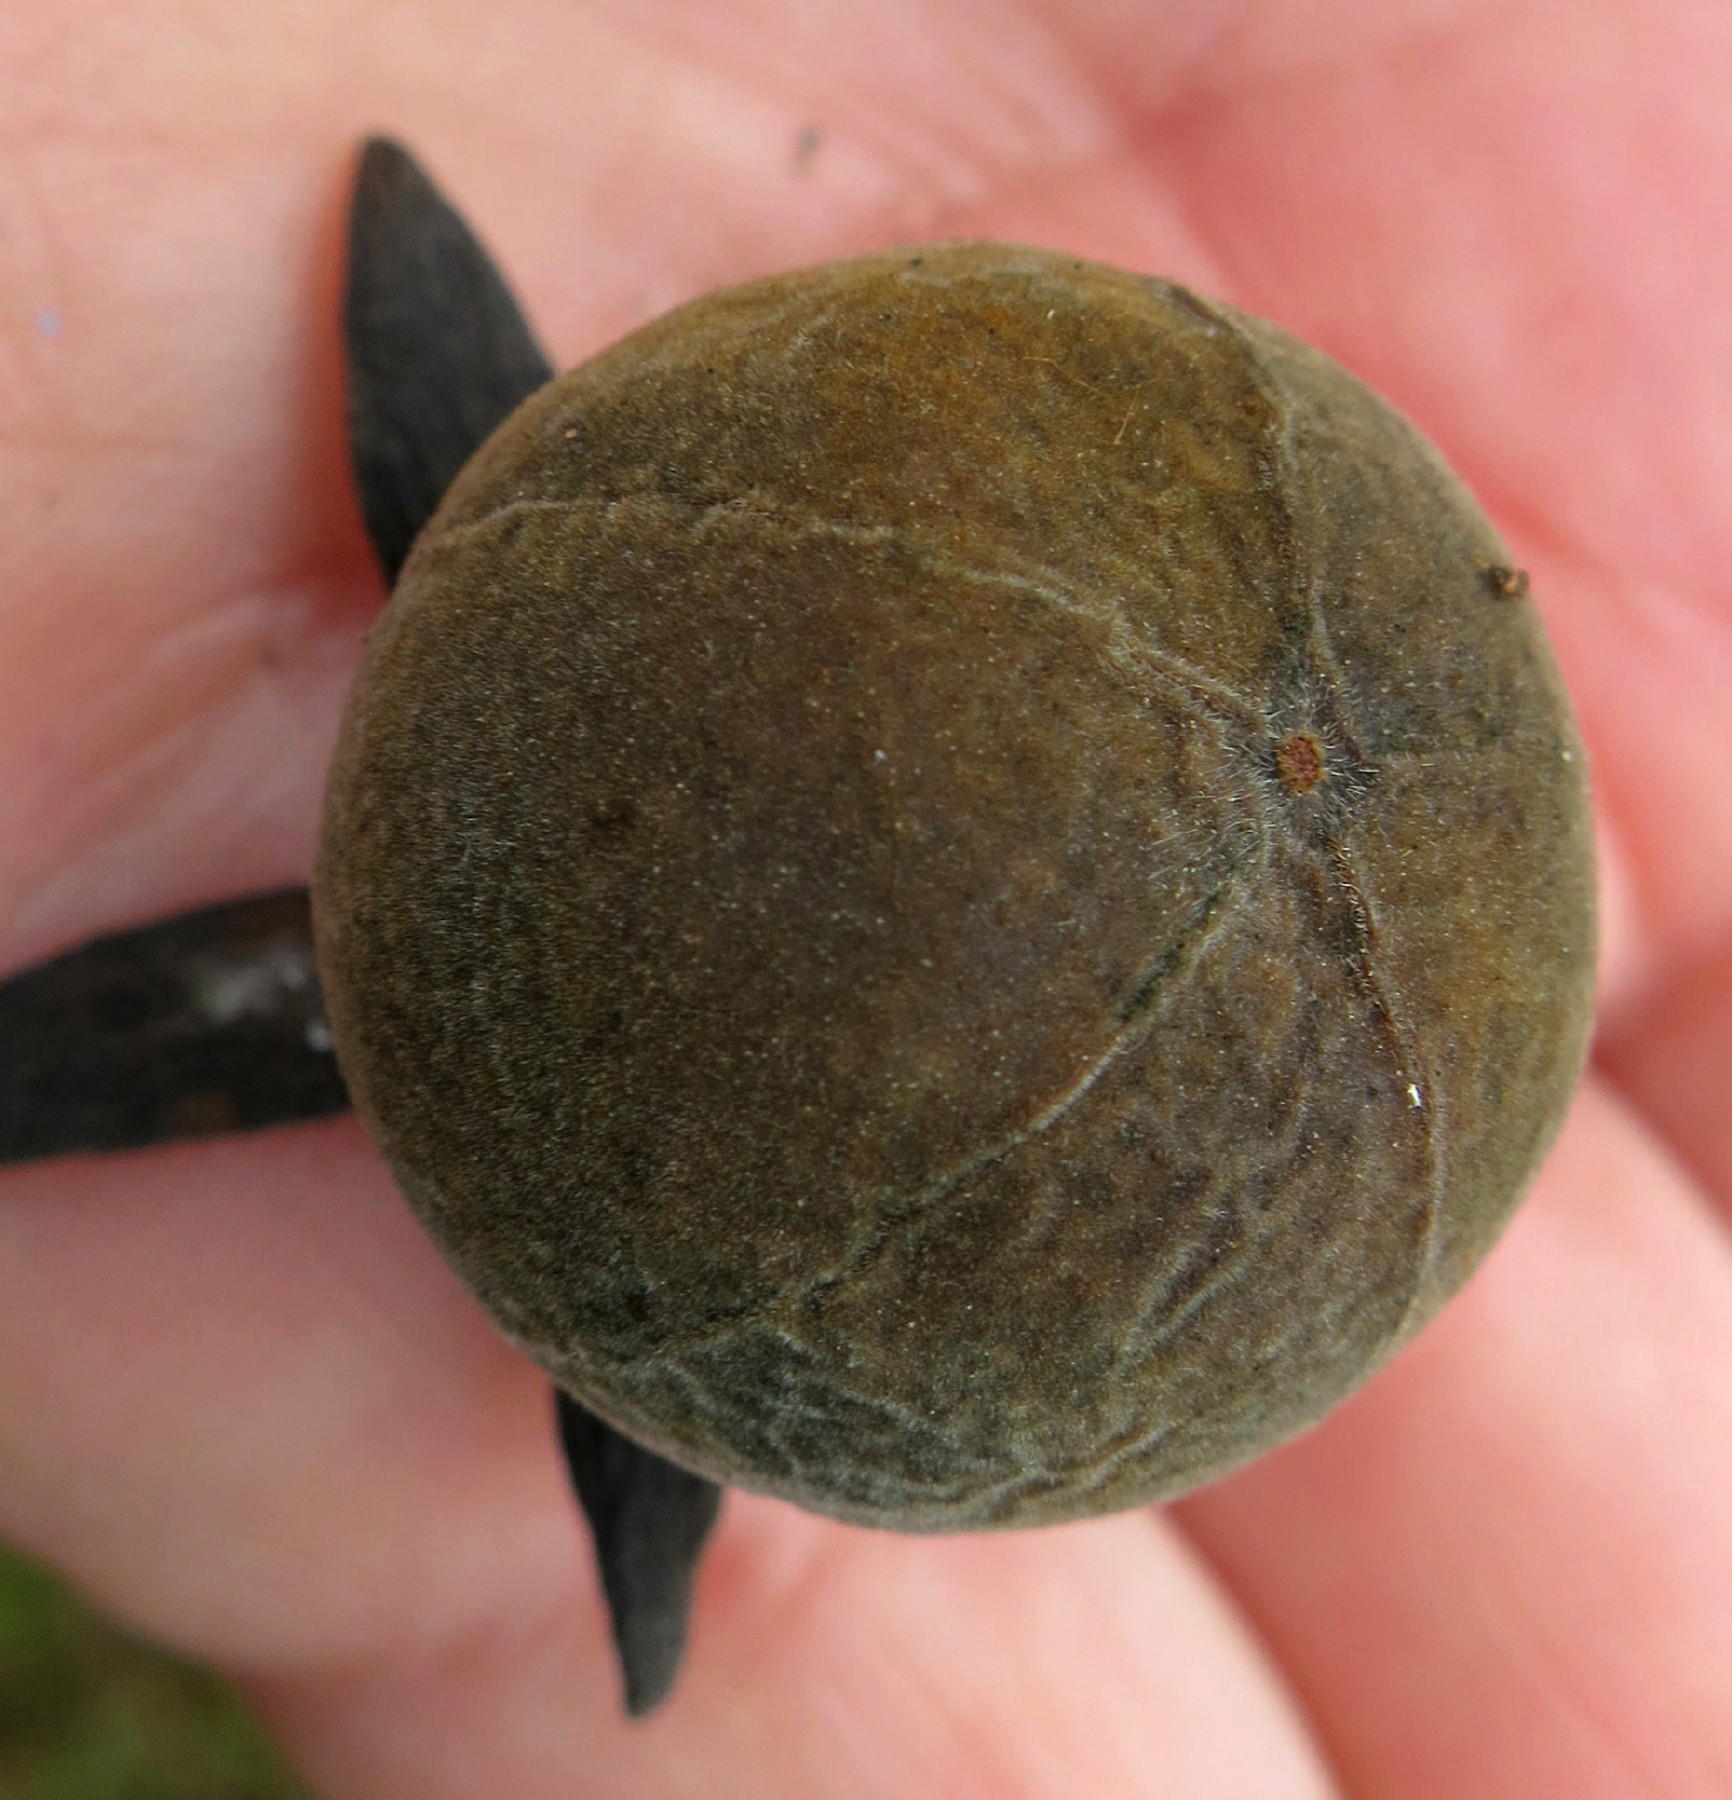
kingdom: Plantae
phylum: Tracheophyta
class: Magnoliopsida
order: Ericales
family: Ebenaceae
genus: Diospyros
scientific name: Diospyros dichrophylla
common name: Common star-apple
